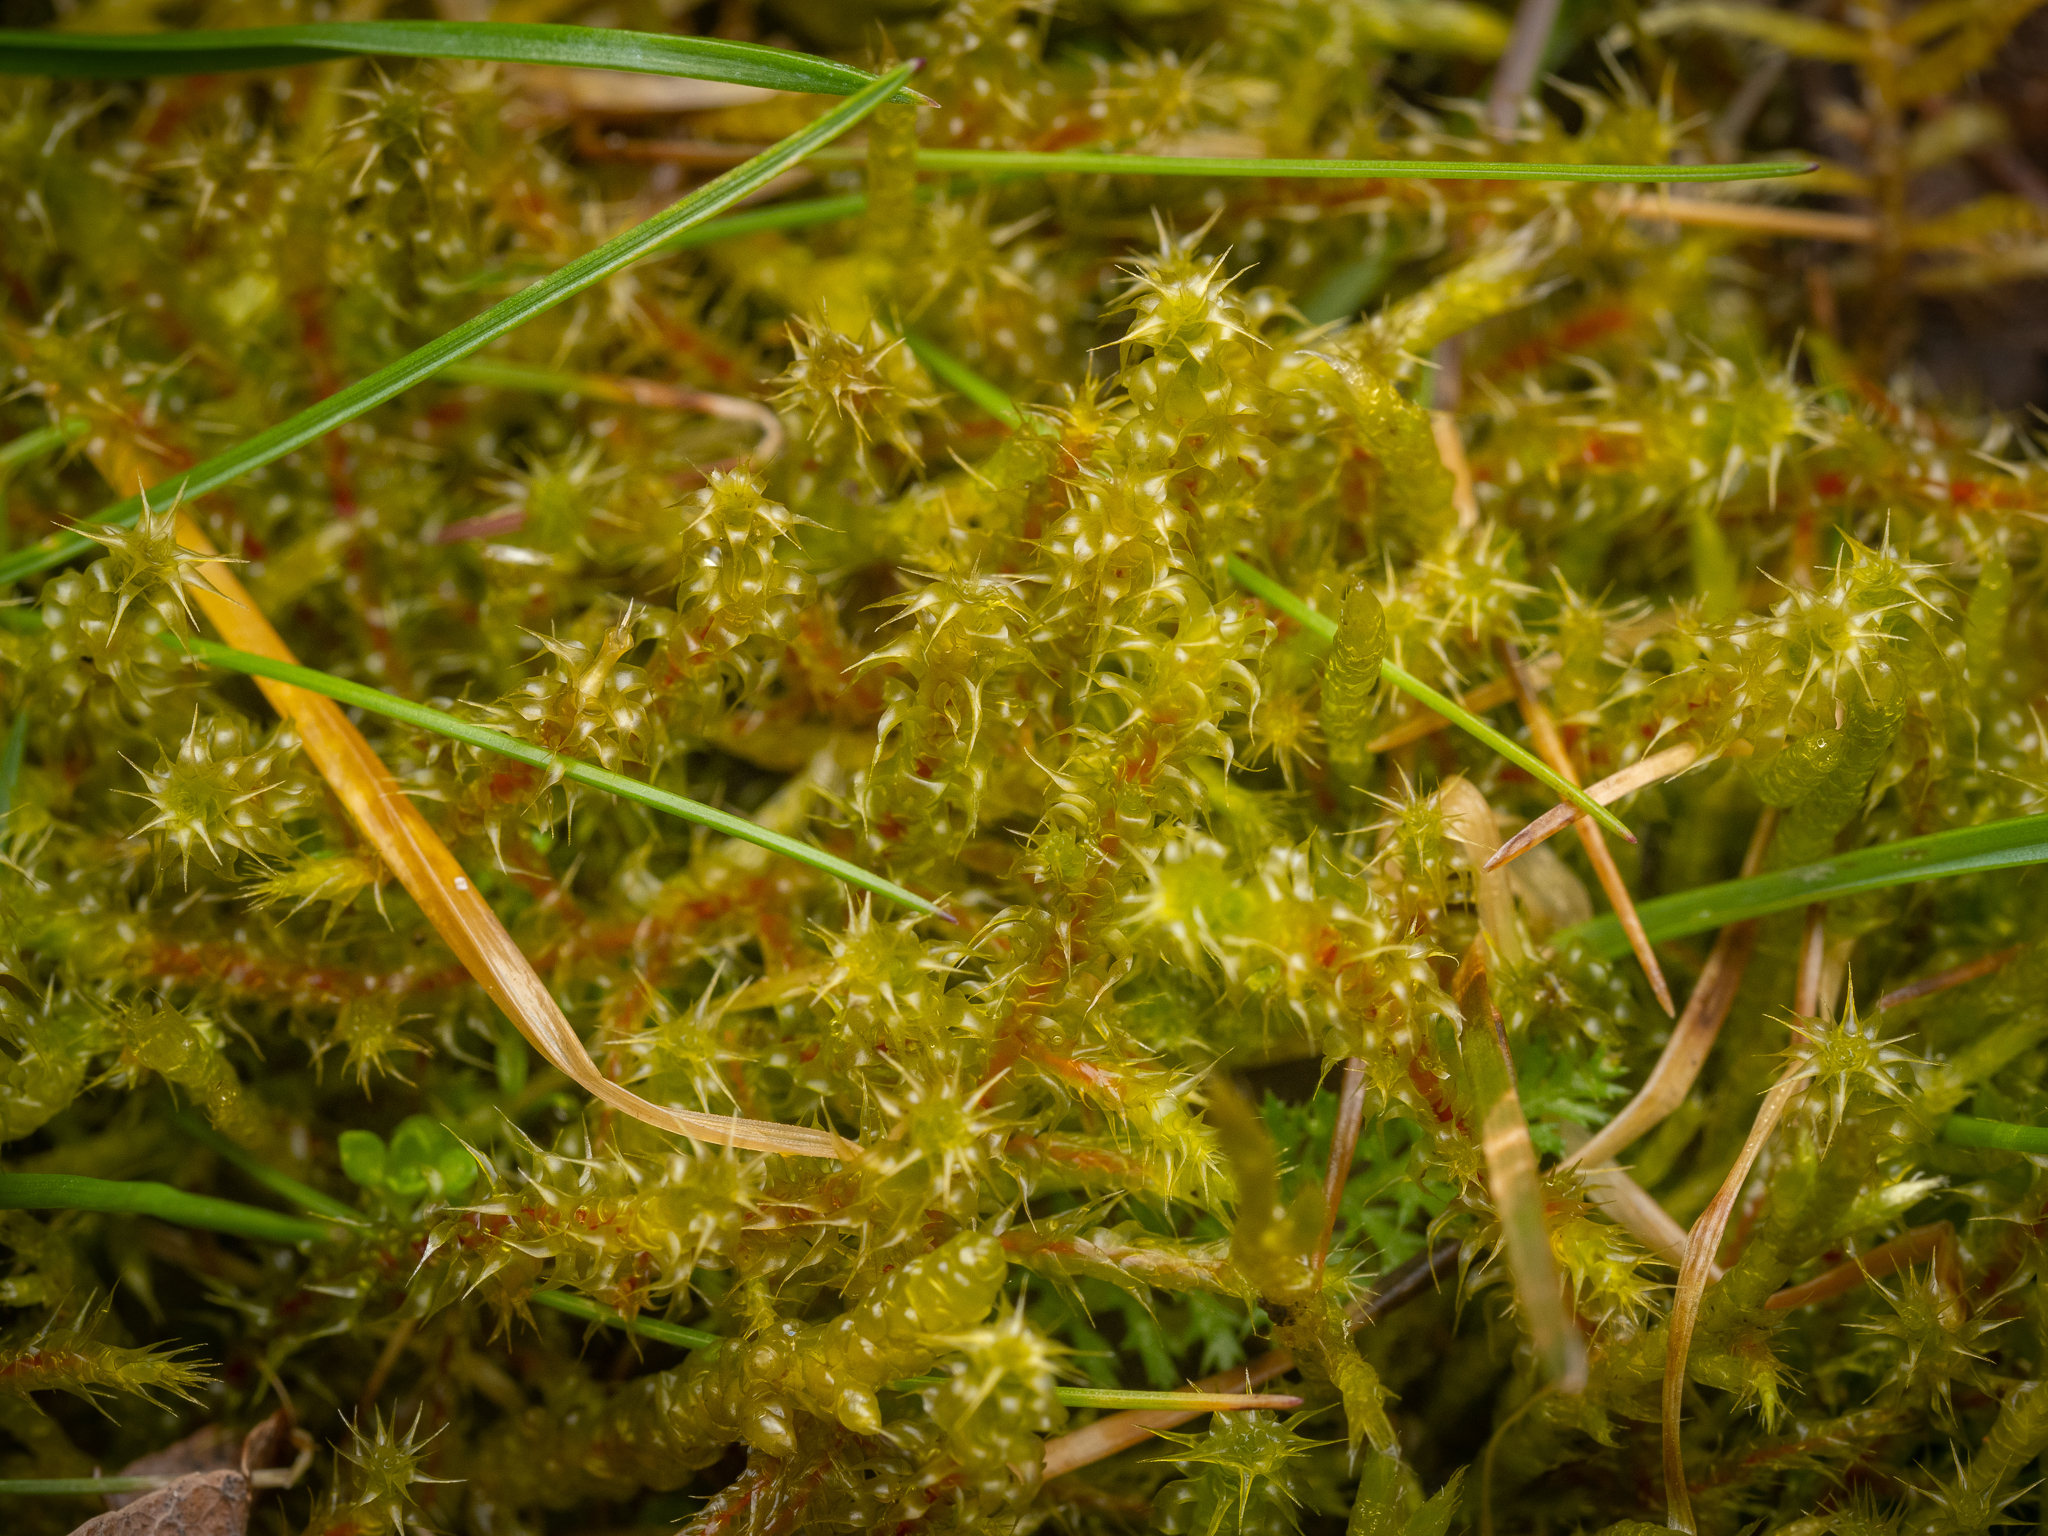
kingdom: Plantae
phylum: Bryophyta
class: Bryopsida
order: Hypnales
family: Hylocomiaceae
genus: Rhytidiadelphus
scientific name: Rhytidiadelphus squarrosus
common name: Springy turf-moss
